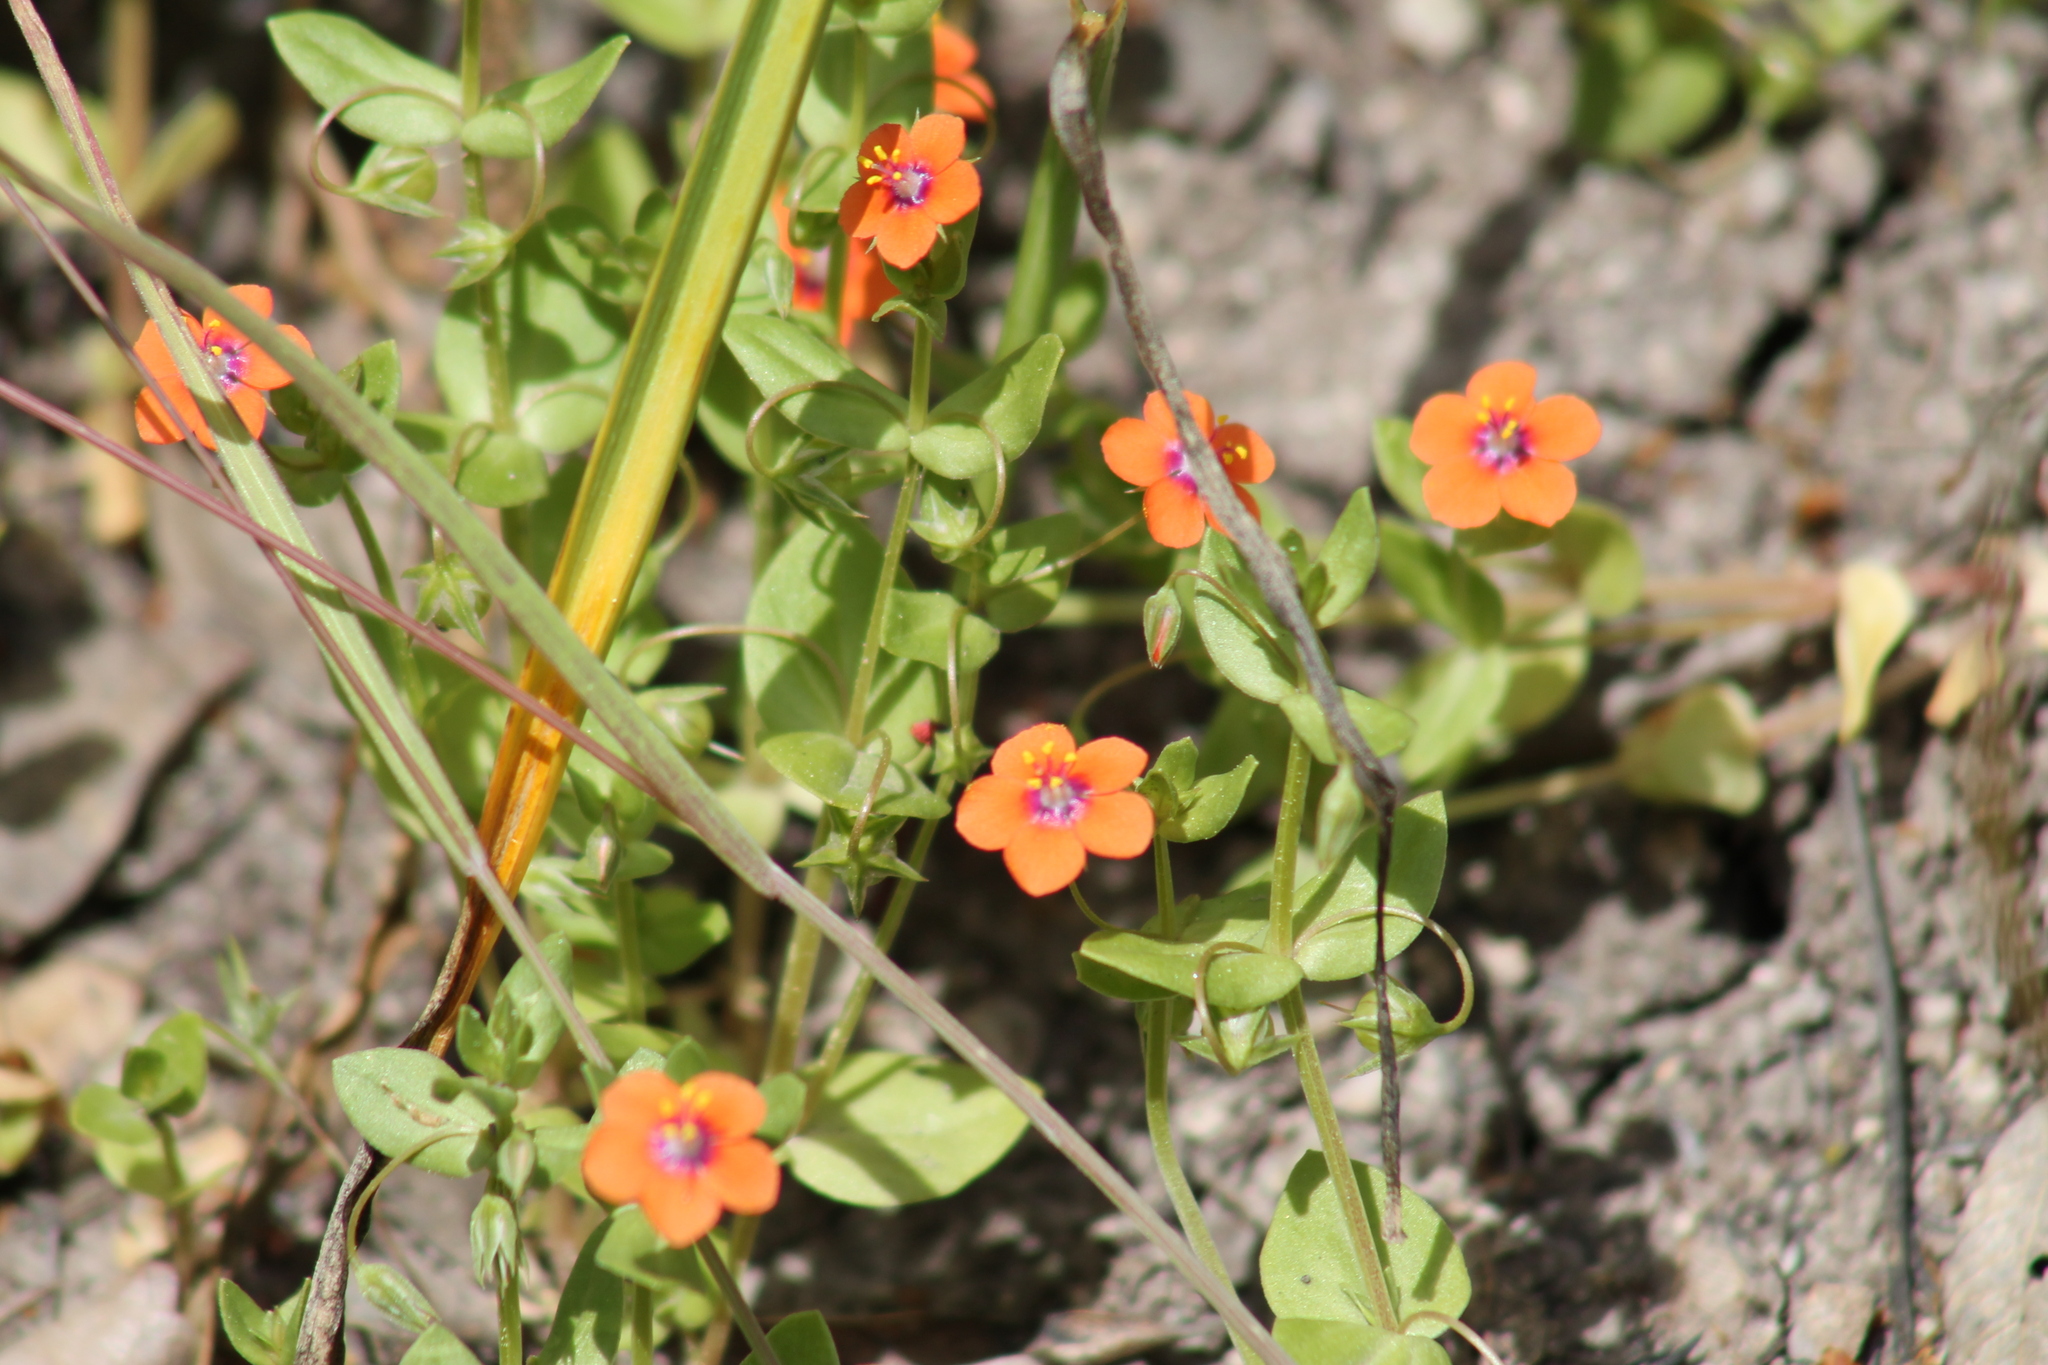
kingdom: Plantae
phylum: Tracheophyta
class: Magnoliopsida
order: Ericales
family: Primulaceae
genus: Lysimachia
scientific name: Lysimachia arvensis
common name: Scarlet pimpernel
